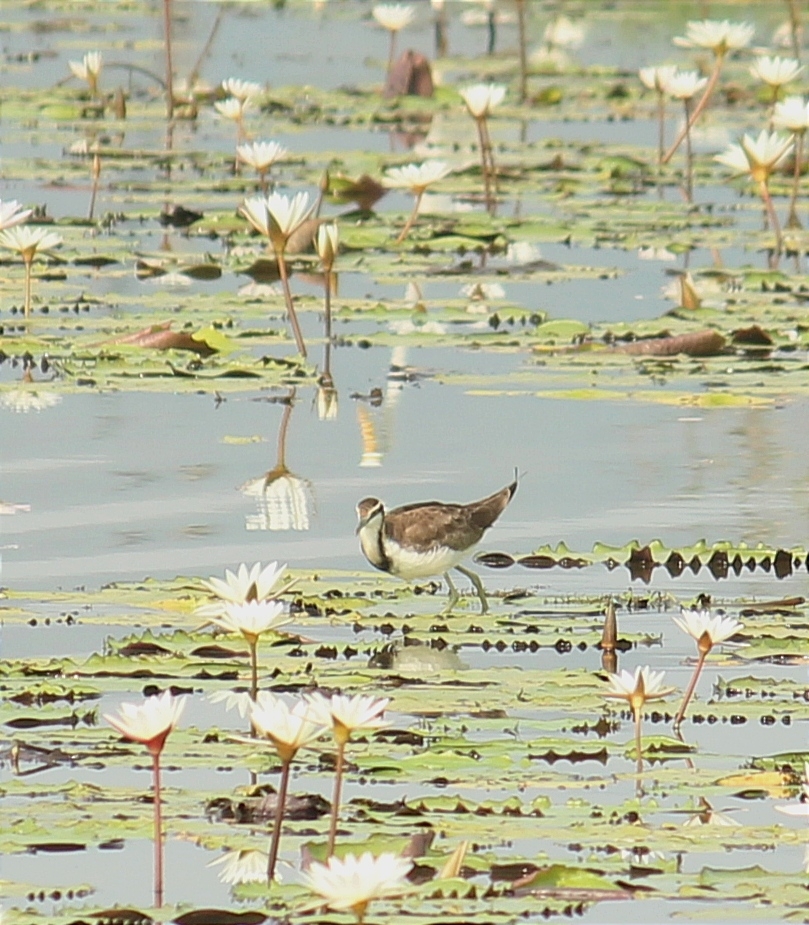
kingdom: Animalia
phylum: Chordata
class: Aves
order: Charadriiformes
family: Jacanidae
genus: Hydrophasianus
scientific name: Hydrophasianus chirurgus
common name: Pheasant-tailed jacana
